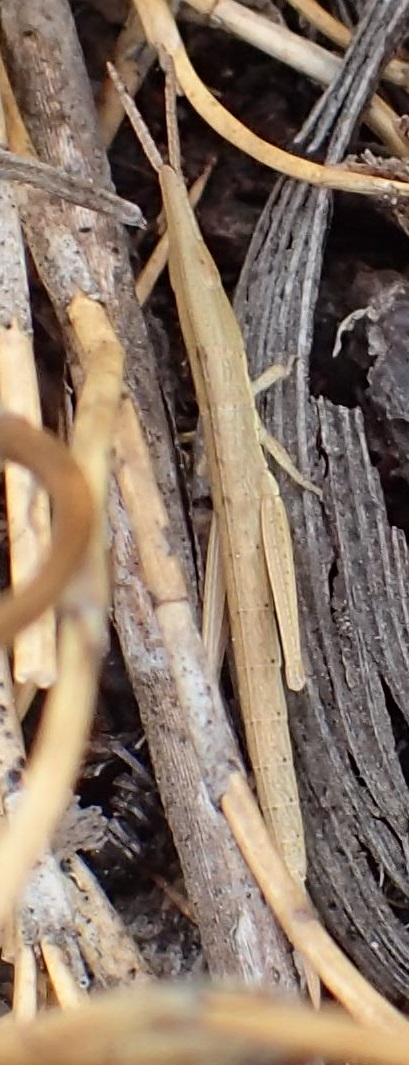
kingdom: Animalia
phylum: Arthropoda
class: Insecta
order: Orthoptera
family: Pyrgomorphidae
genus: Psednura
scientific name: Psednura pedestris
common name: Common psednura
